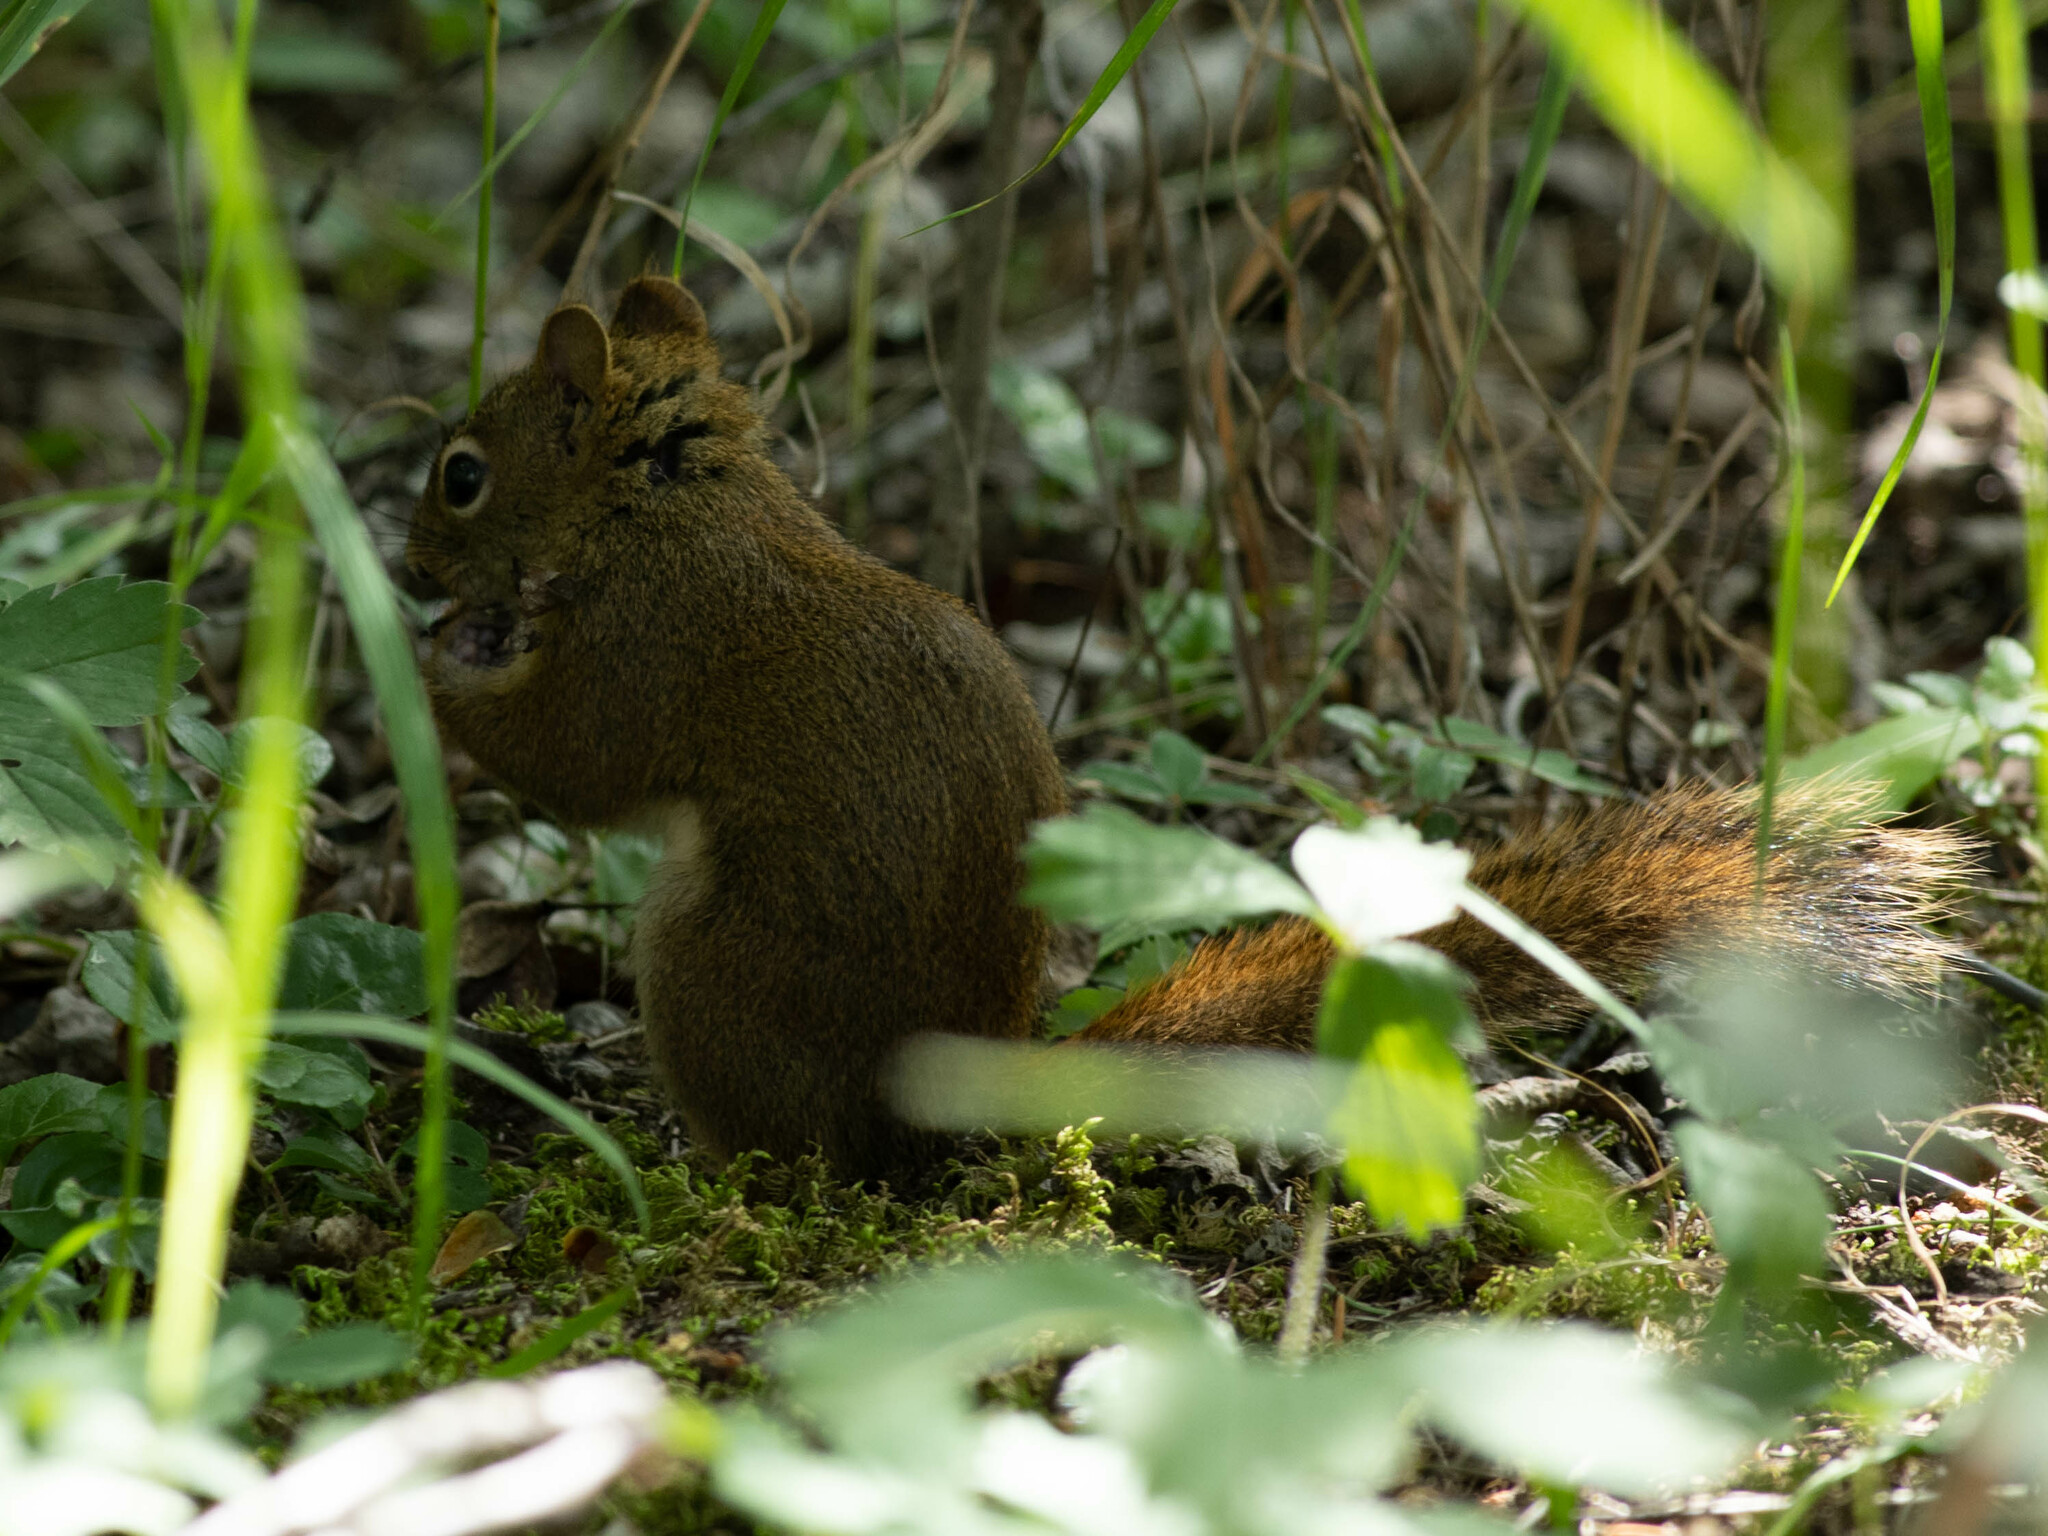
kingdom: Animalia
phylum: Chordata
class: Mammalia
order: Rodentia
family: Sciuridae
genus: Tamiasciurus
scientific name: Tamiasciurus hudsonicus
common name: Red squirrel
